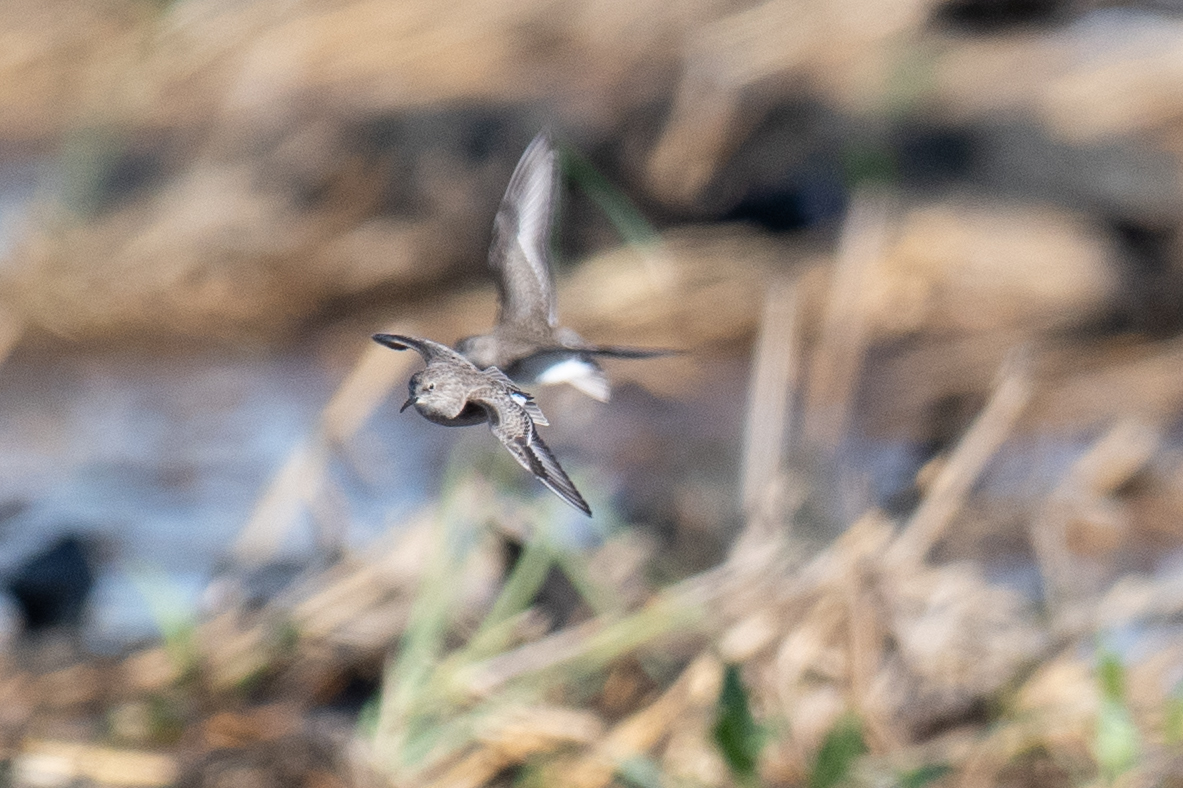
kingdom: Animalia
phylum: Chordata
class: Aves
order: Charadriiformes
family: Scolopacidae
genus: Calidris
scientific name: Calidris minutilla
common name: Least sandpiper
